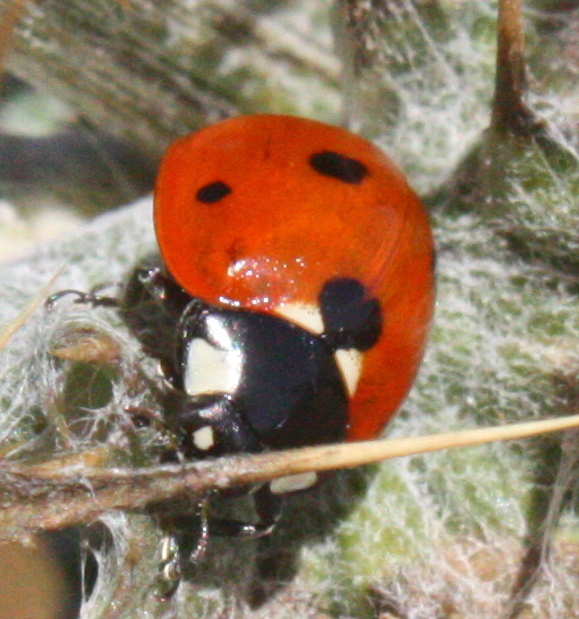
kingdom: Animalia
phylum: Arthropoda
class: Insecta
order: Coleoptera
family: Coccinellidae
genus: Coccinella
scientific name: Coccinella septempunctata
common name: Sevenspotted lady beetle
